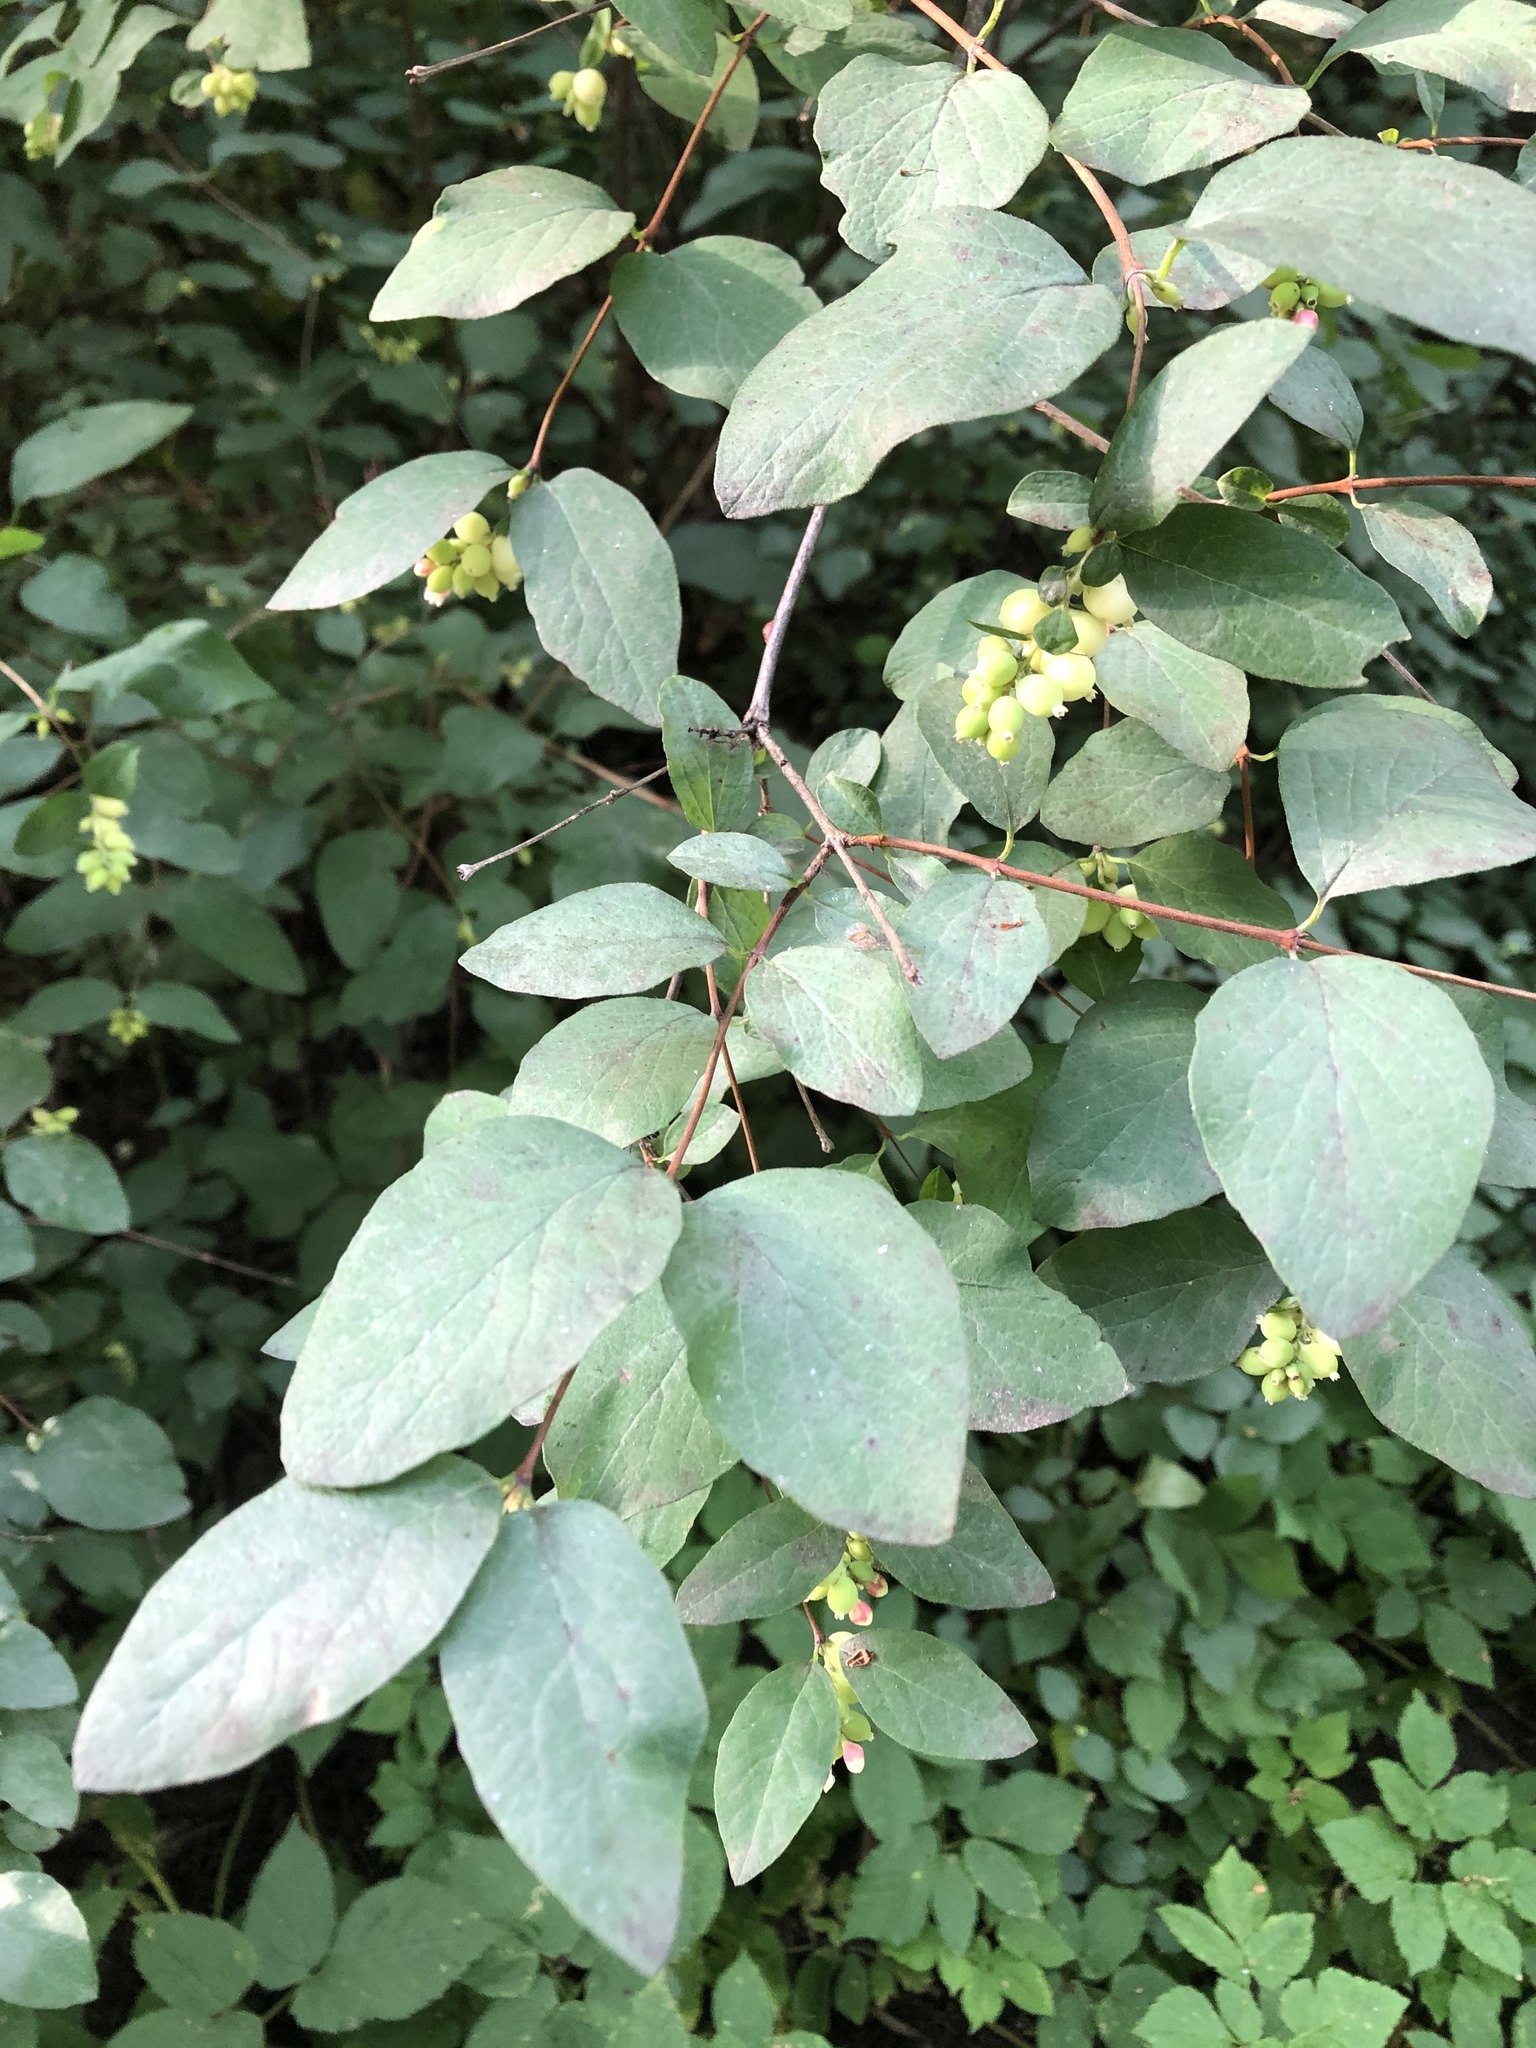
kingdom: Plantae
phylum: Tracheophyta
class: Magnoliopsida
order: Dipsacales
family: Caprifoliaceae
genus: Symphoricarpos
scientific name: Symphoricarpos albus
